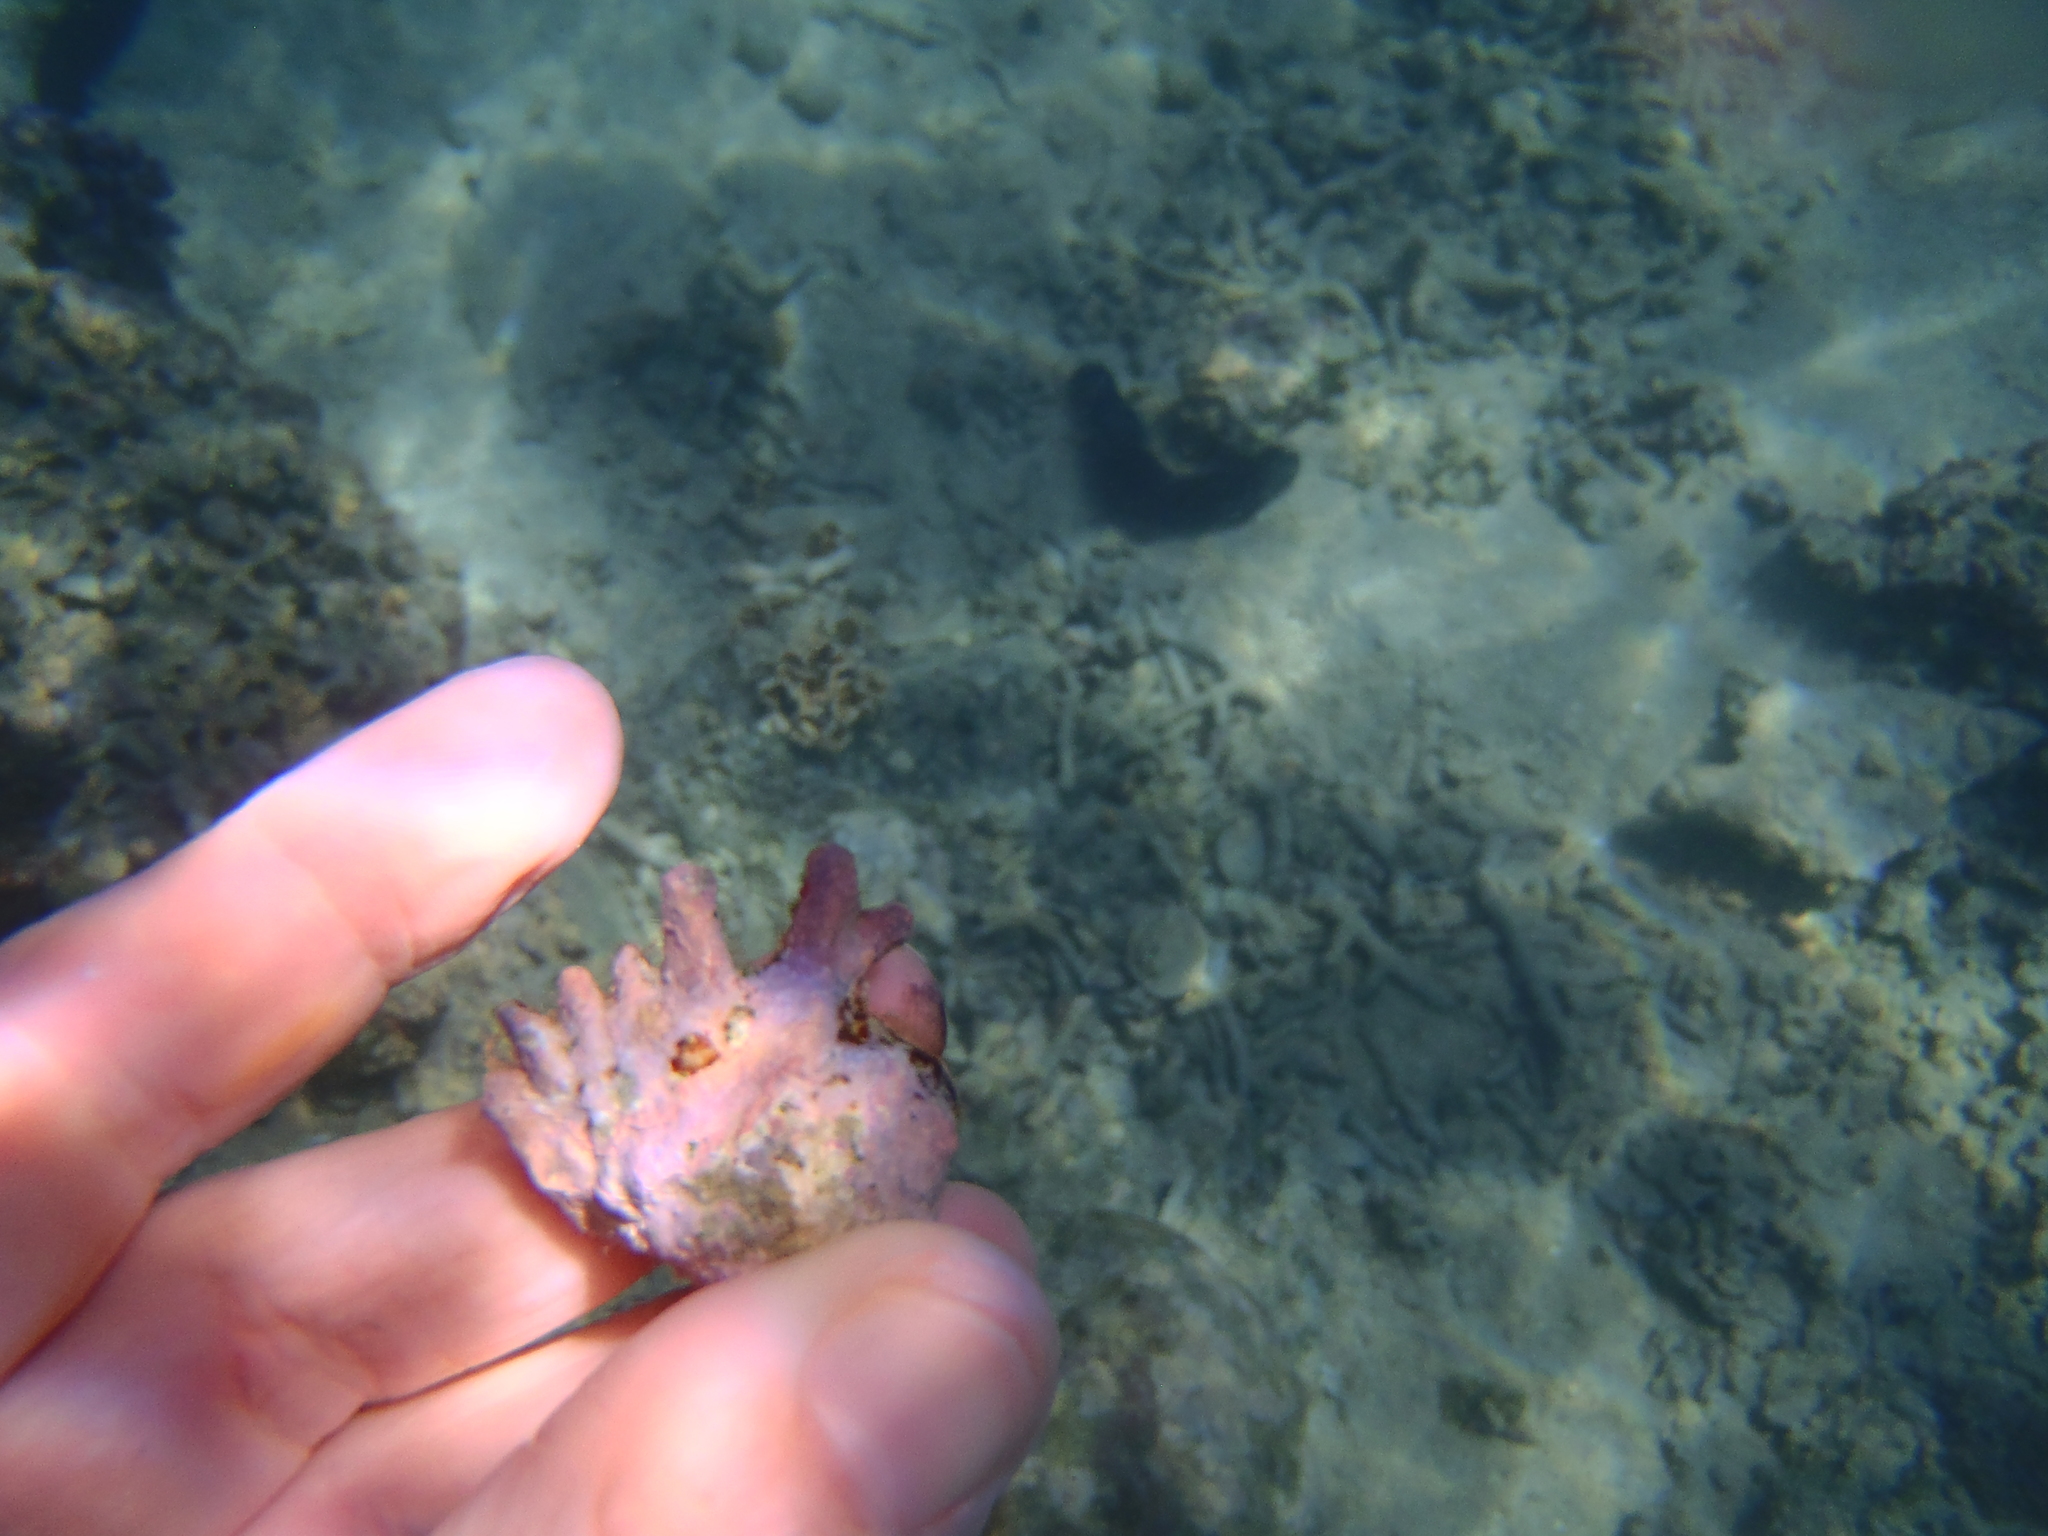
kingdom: Animalia
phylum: Mollusca
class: Gastropoda
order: Neogastropoda
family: Muricidae
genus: Drupina
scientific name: Drupina grossularia
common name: Digitate pacific drupe
